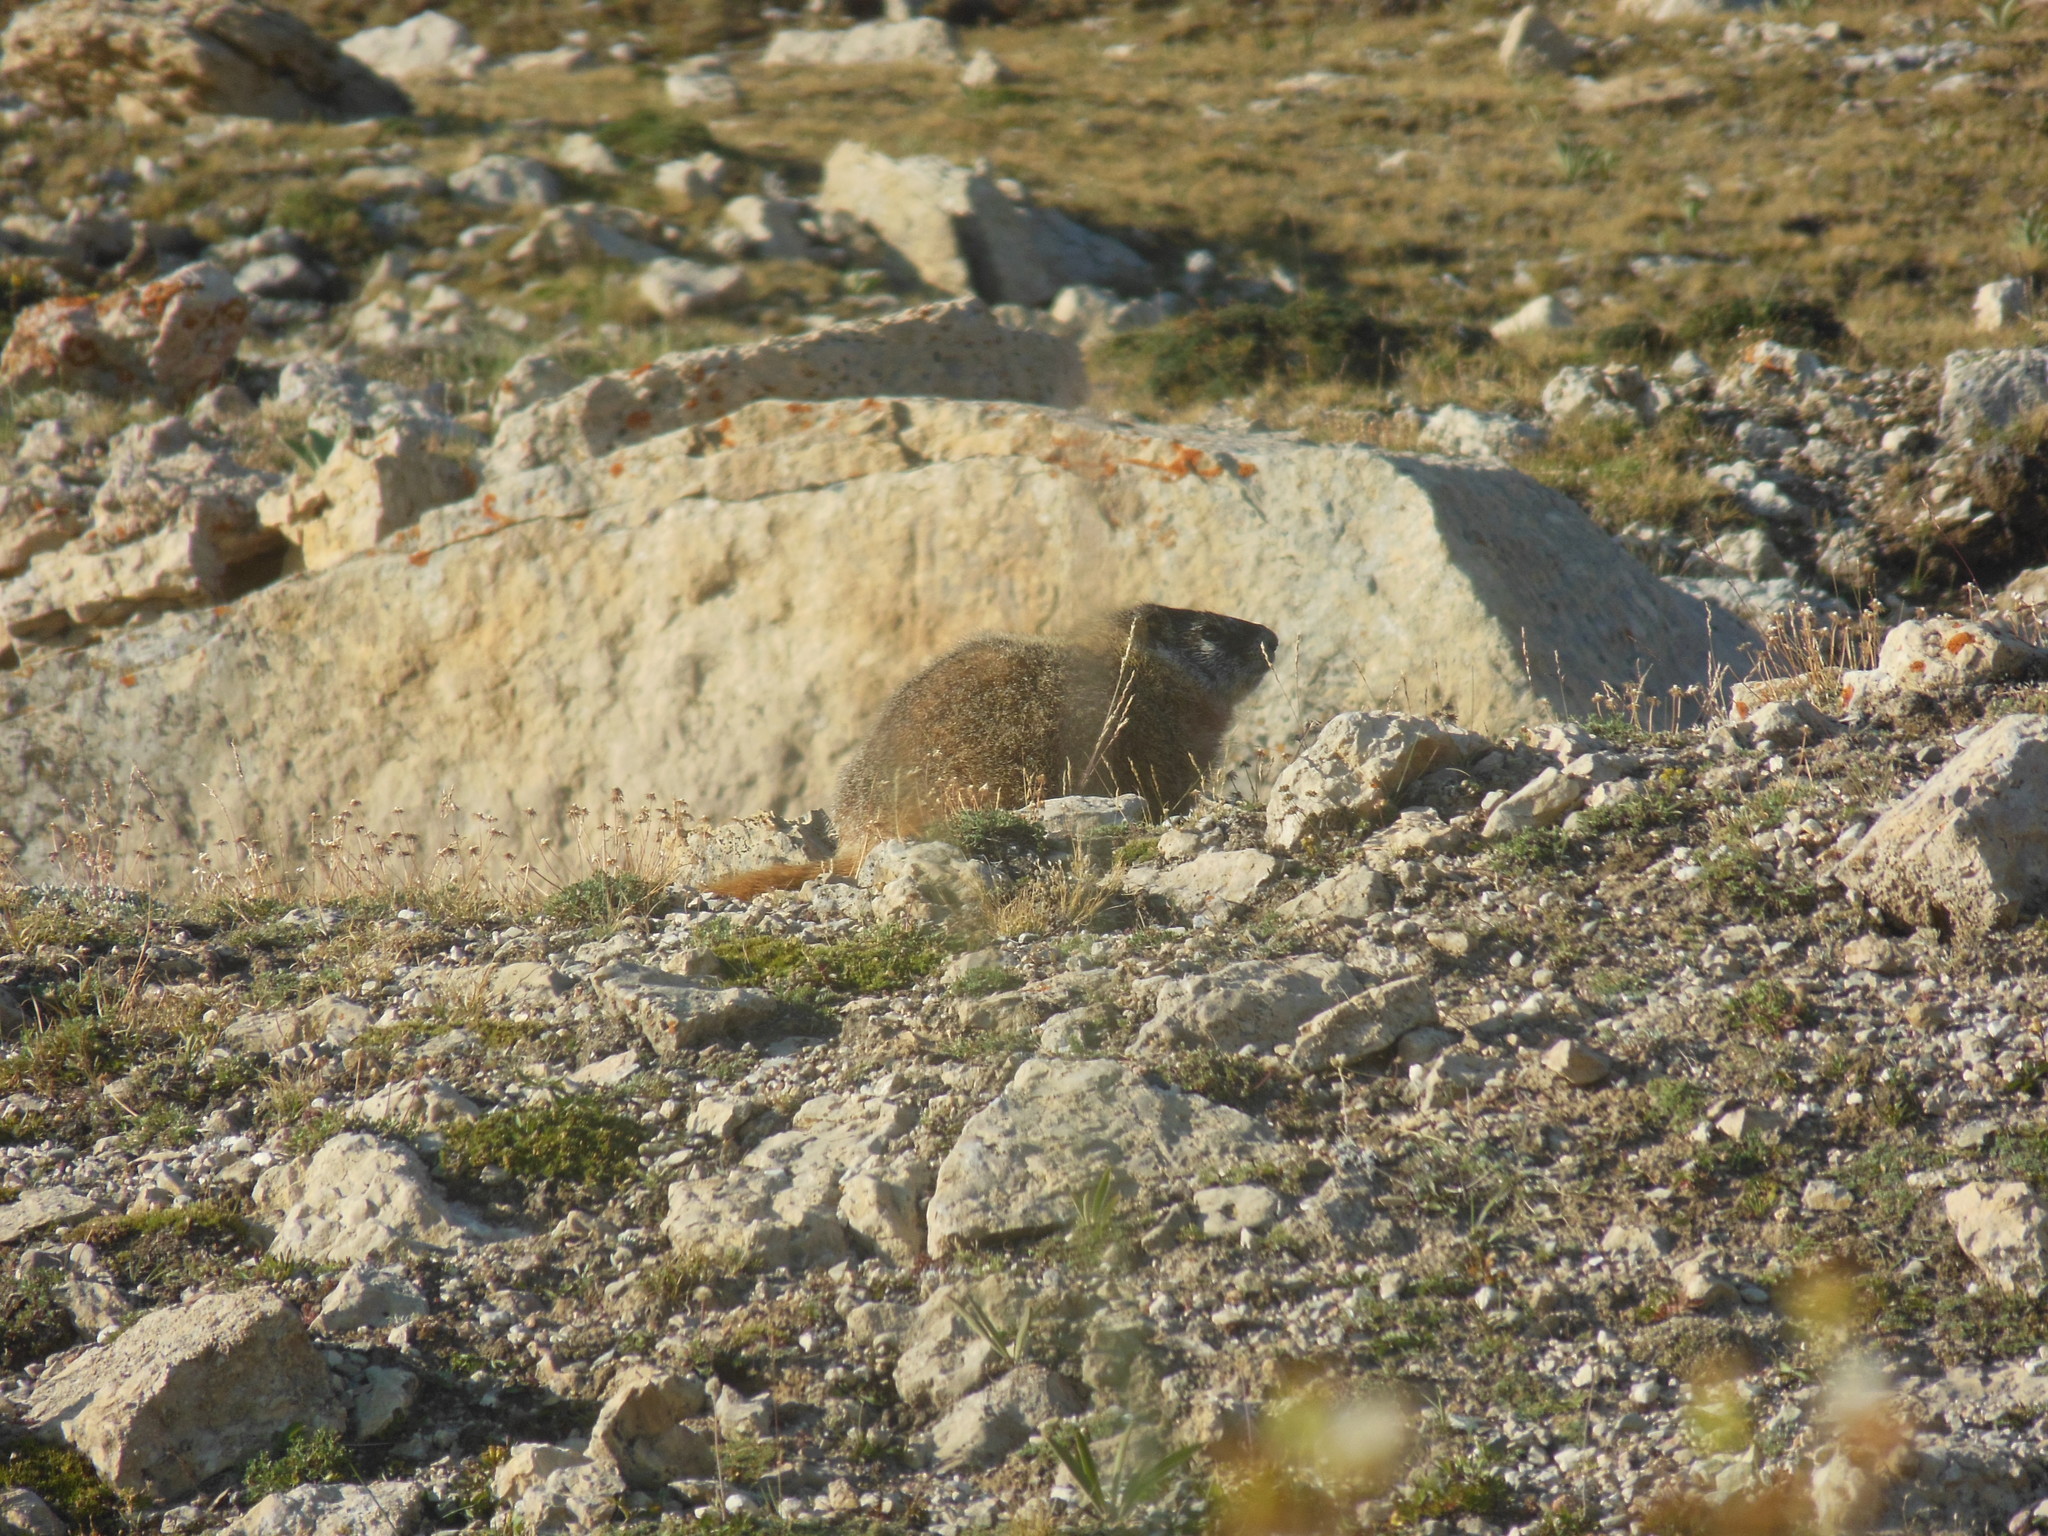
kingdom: Animalia
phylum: Chordata
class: Mammalia
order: Rodentia
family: Sciuridae
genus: Marmota
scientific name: Marmota flaviventris
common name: Yellow-bellied marmot
